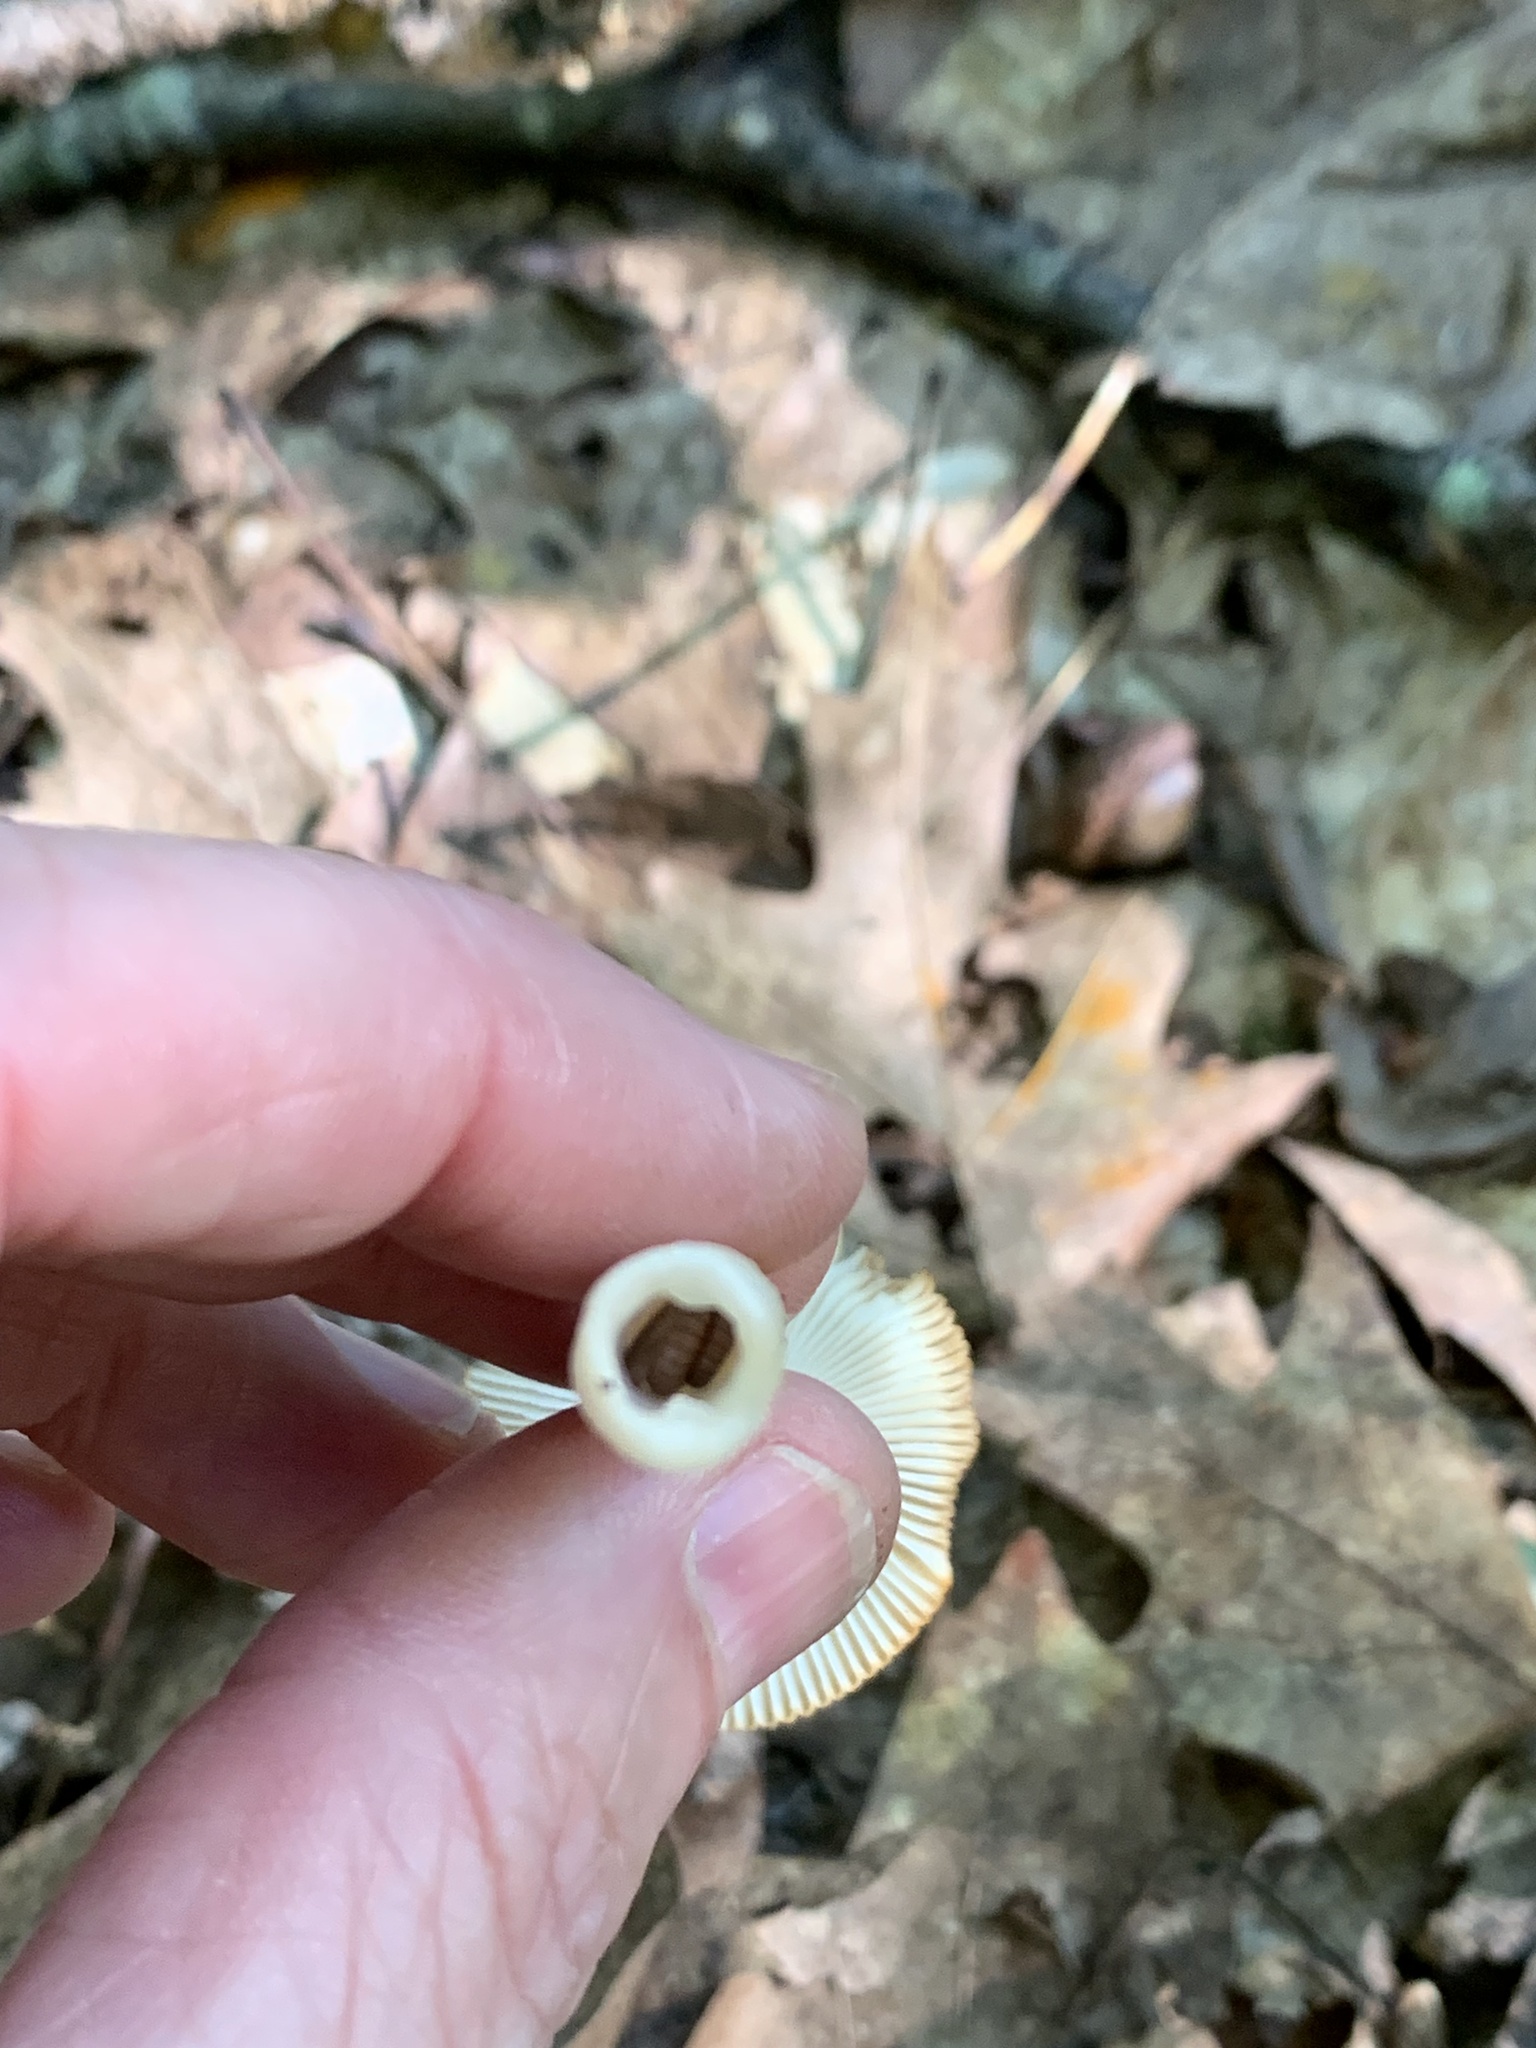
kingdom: Fungi
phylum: Basidiomycota
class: Agaricomycetes
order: Agaricales
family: Amanitaceae
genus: Amanita
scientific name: Amanita fulva
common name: Tawny grisette
